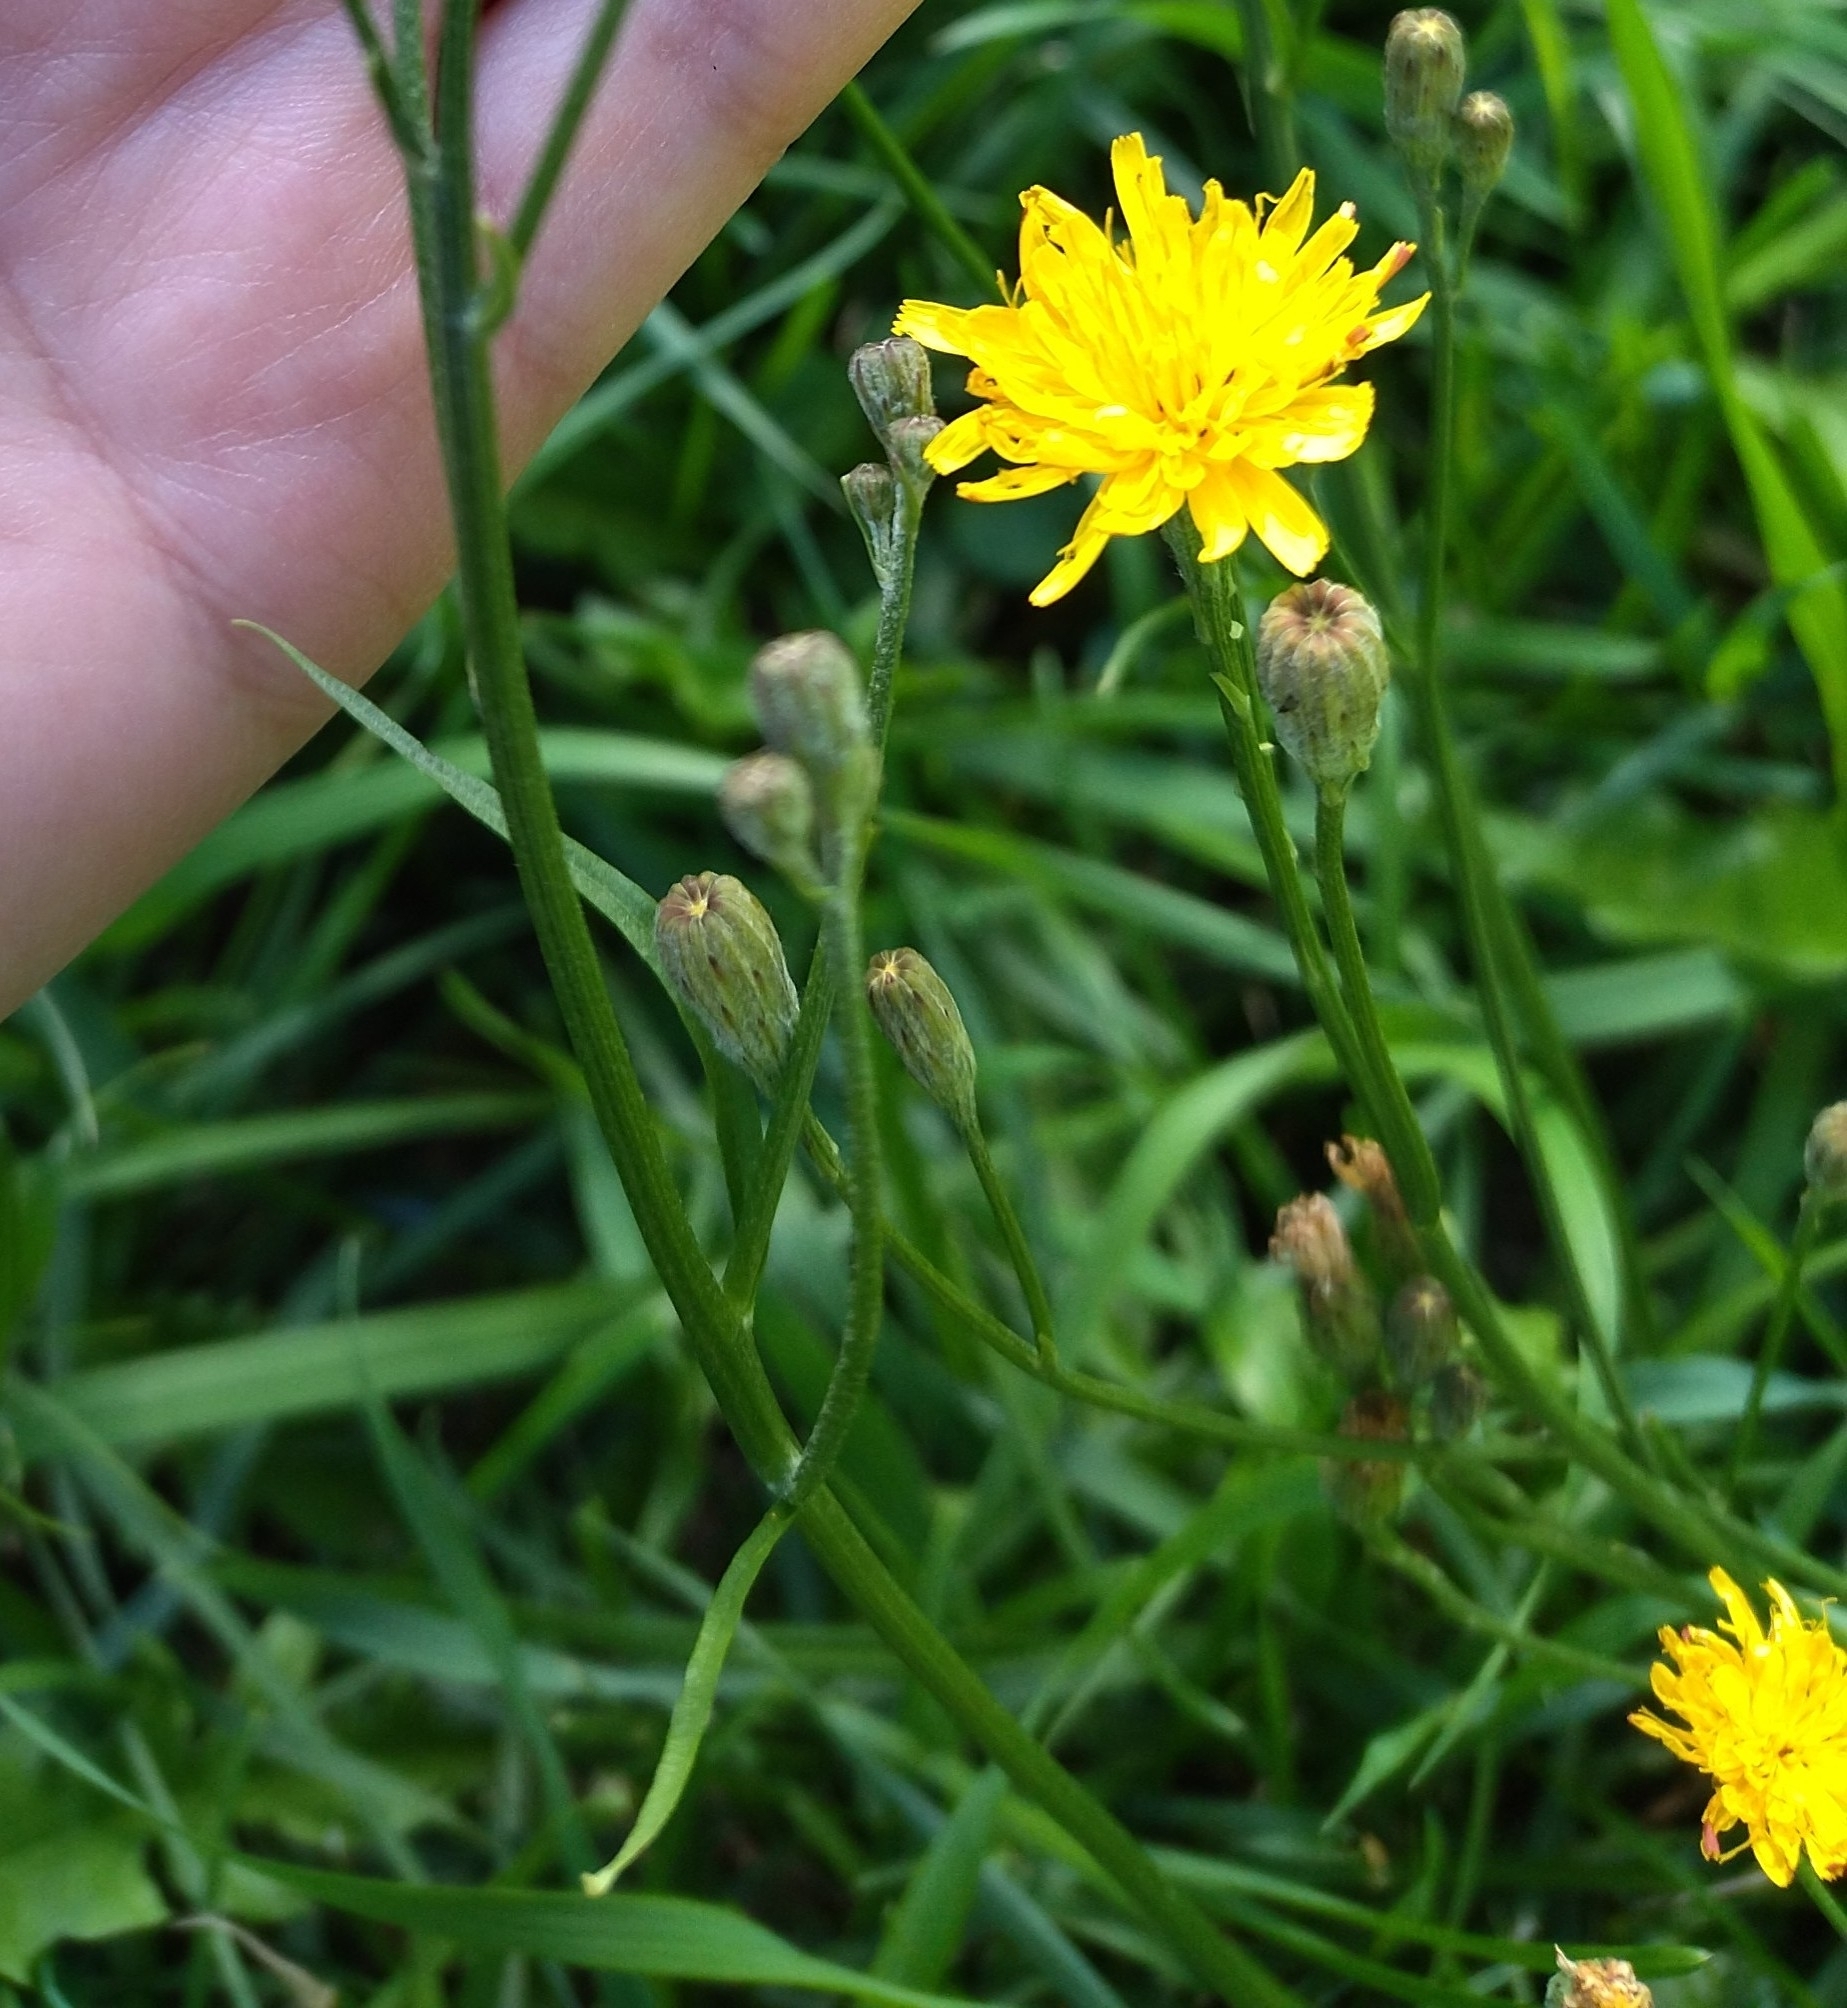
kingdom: Plantae
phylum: Tracheophyta
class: Magnoliopsida
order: Asterales
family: Asteraceae
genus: Scorzoneroides
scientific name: Scorzoneroides autumnalis
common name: Autumn hawkbit
